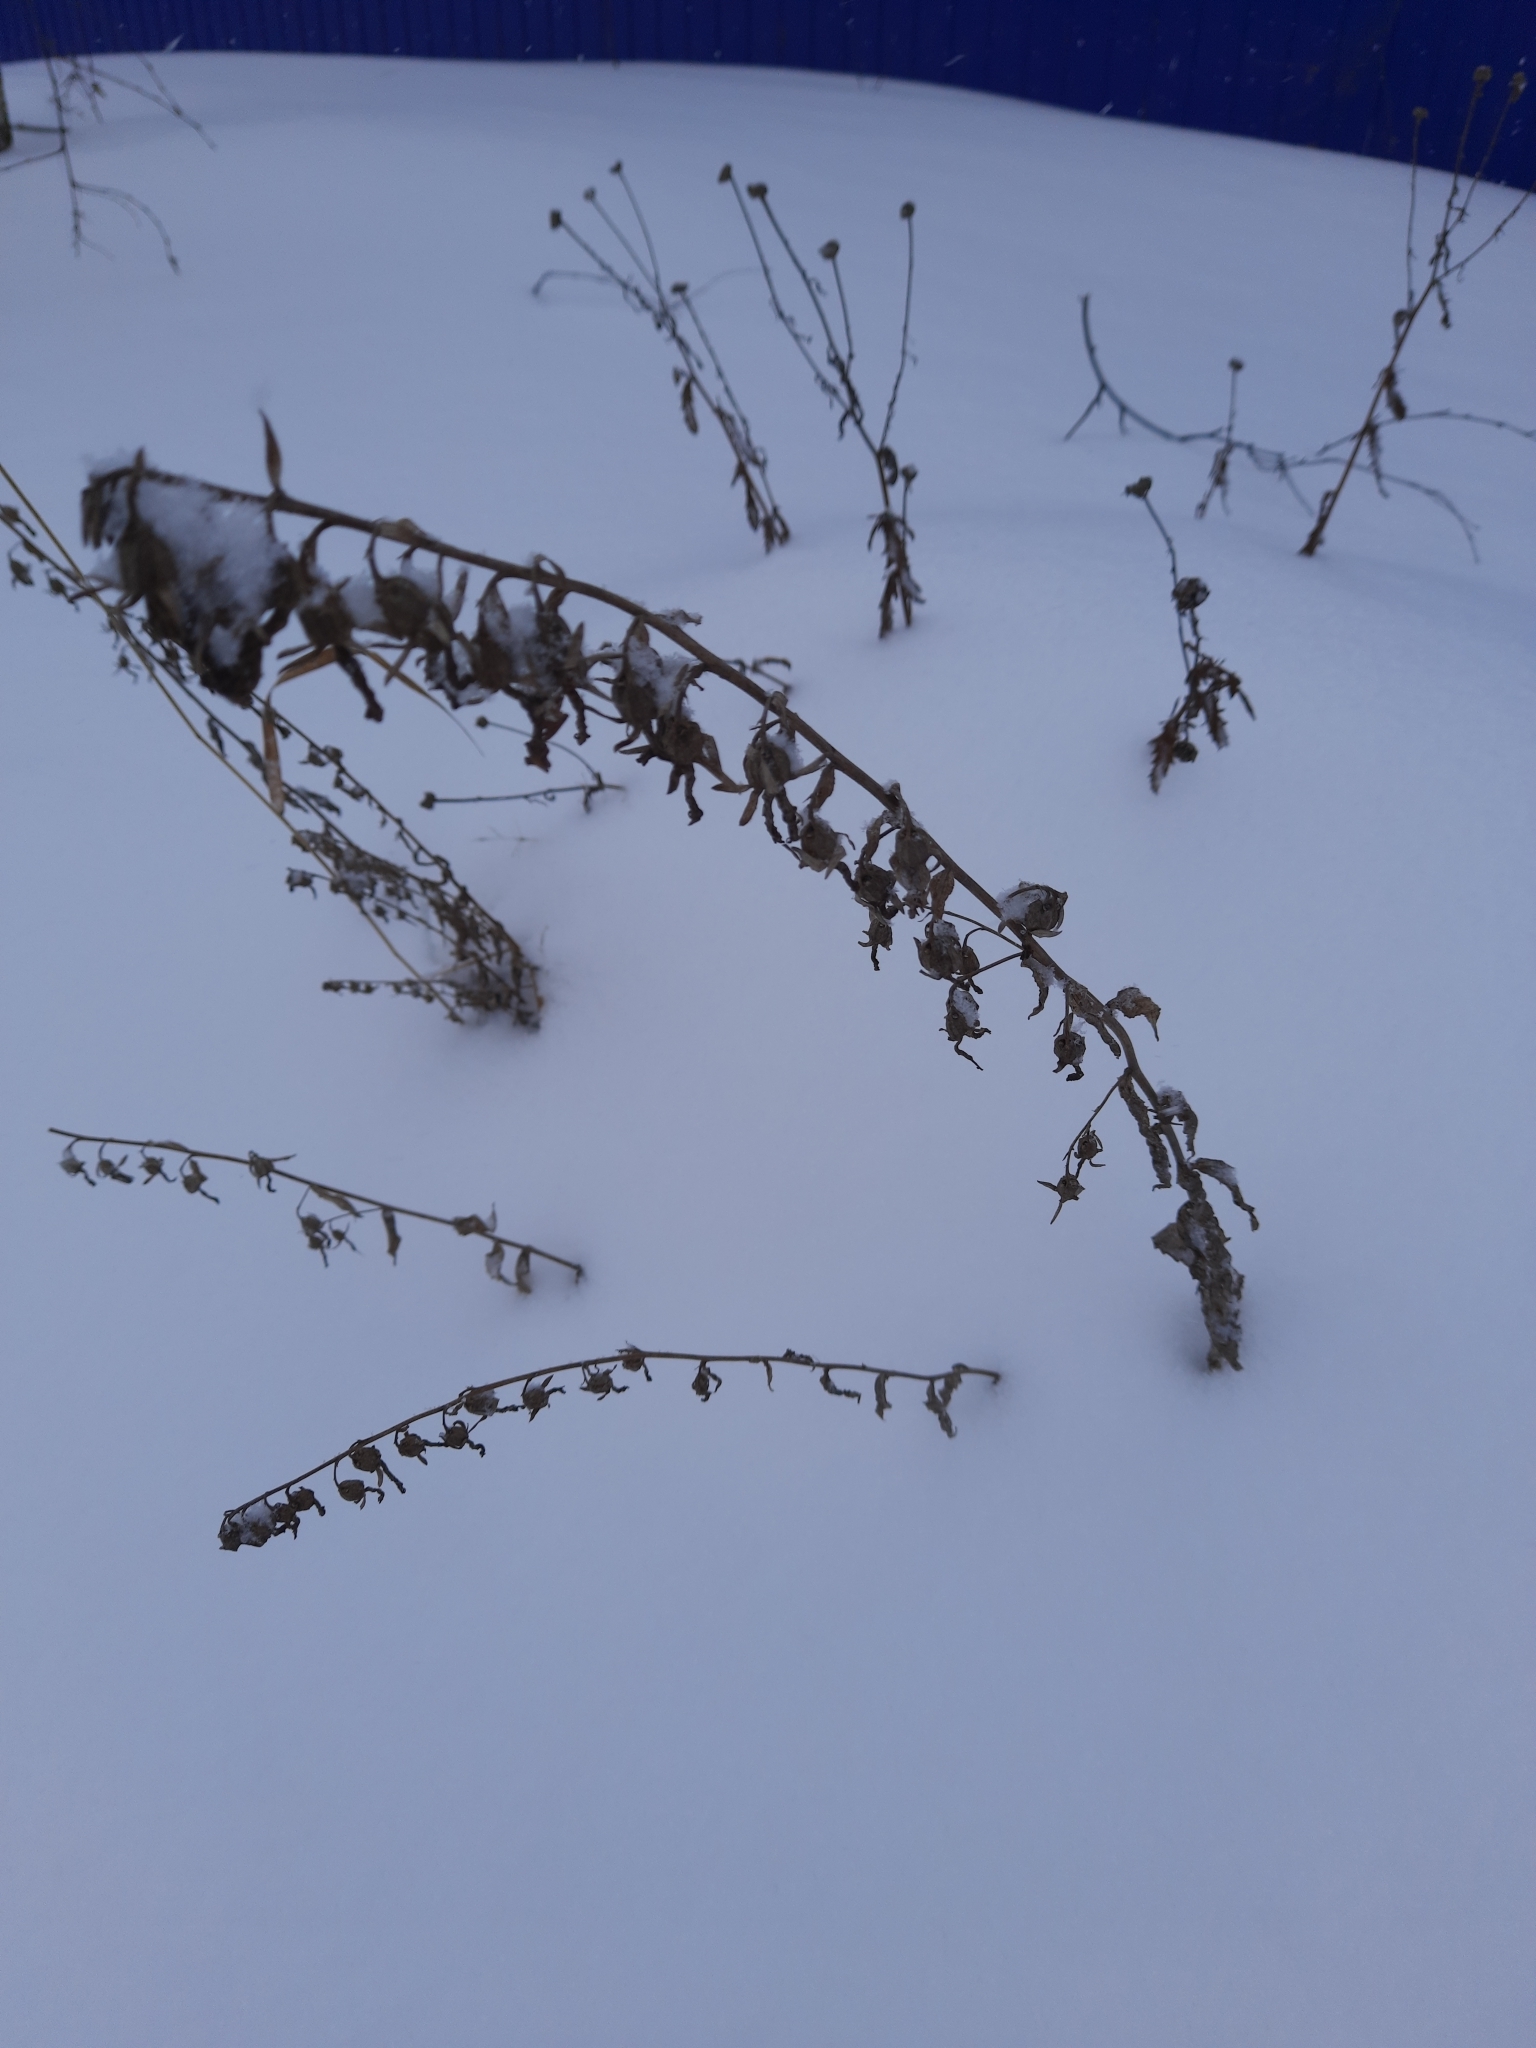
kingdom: Plantae
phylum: Tracheophyta
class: Magnoliopsida
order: Asterales
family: Campanulaceae
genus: Campanula
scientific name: Campanula rapunculoides
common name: Creeping bellflower
